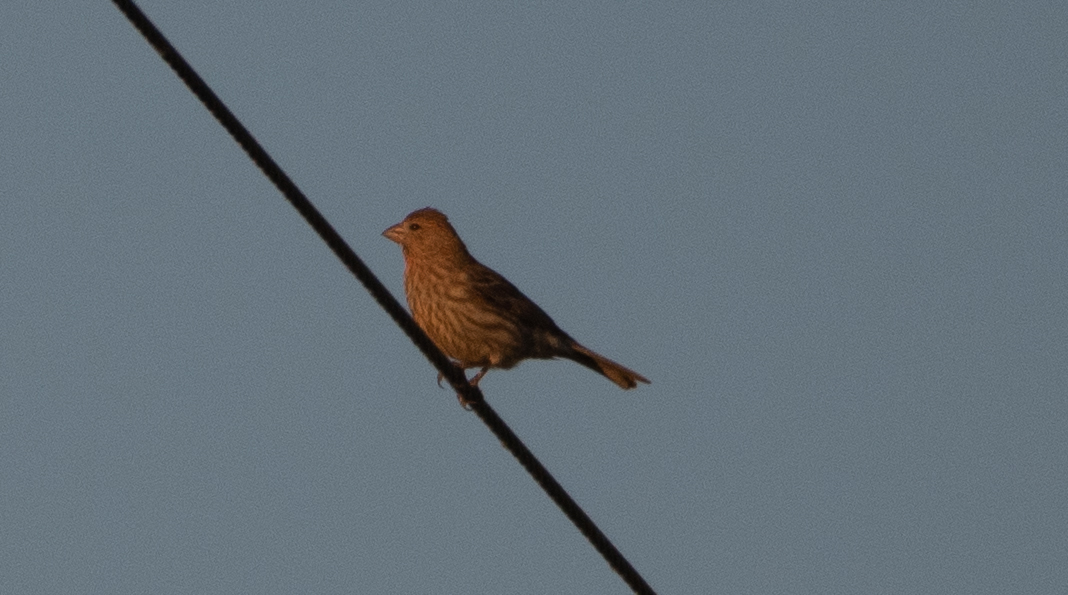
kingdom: Animalia
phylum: Chordata
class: Aves
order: Passeriformes
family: Fringillidae
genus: Haemorhous
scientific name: Haemorhous mexicanus
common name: House finch
